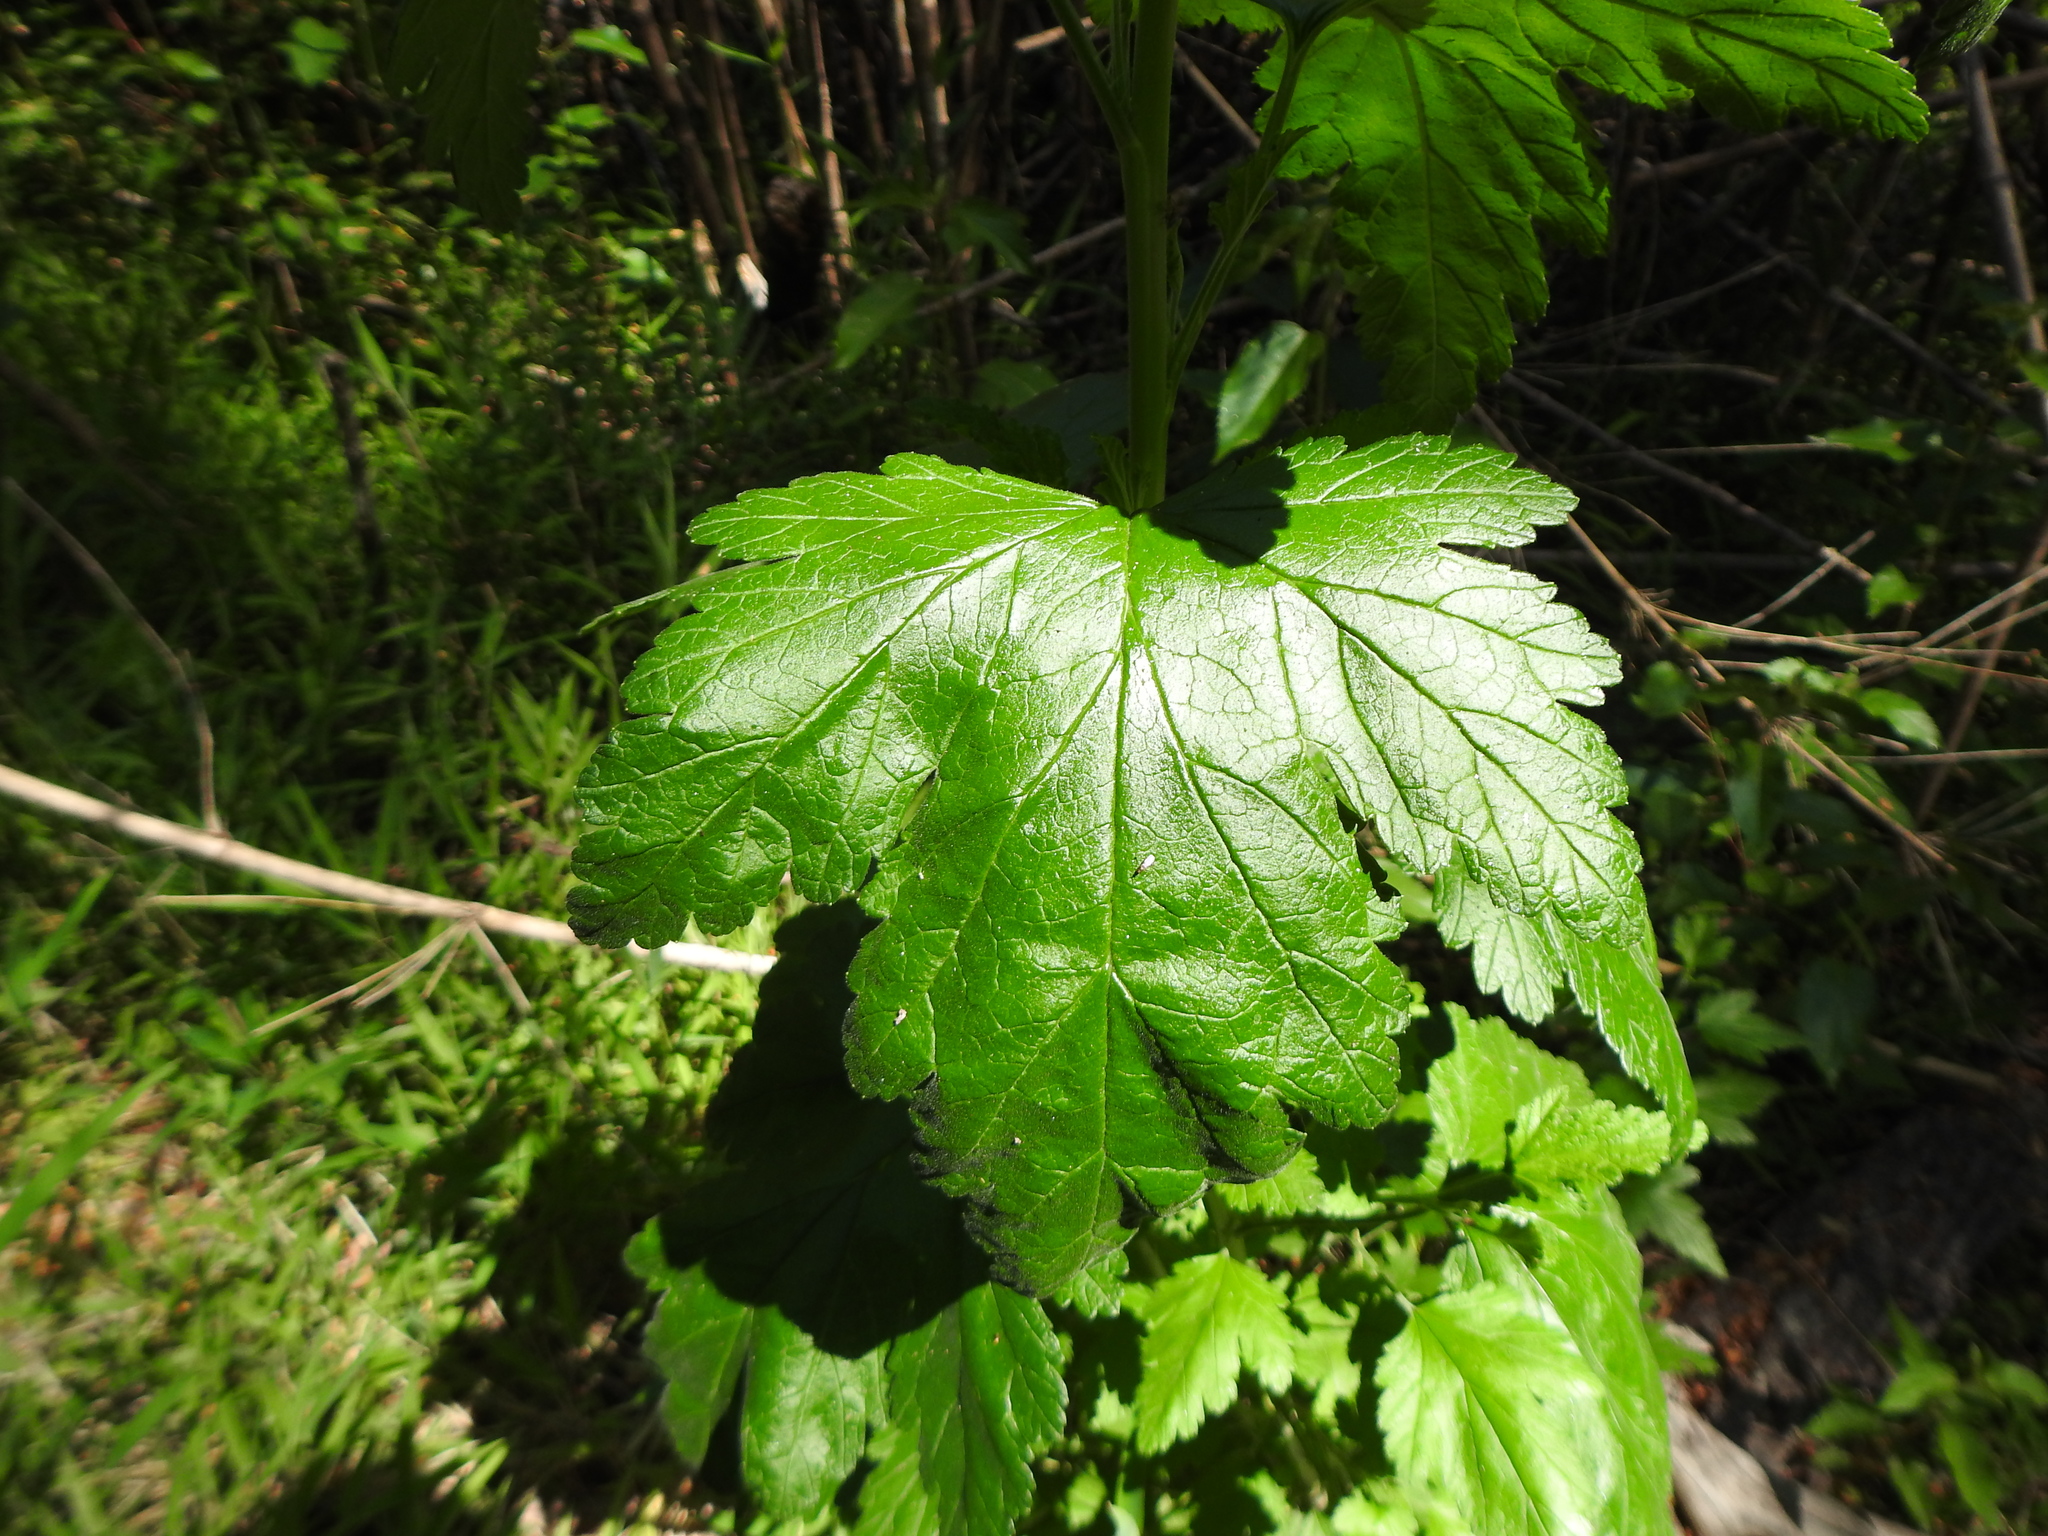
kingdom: Plantae
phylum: Tracheophyta
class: Magnoliopsida
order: Saxifragales
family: Grossulariaceae
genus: Ribes
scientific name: Ribes magellanicum
